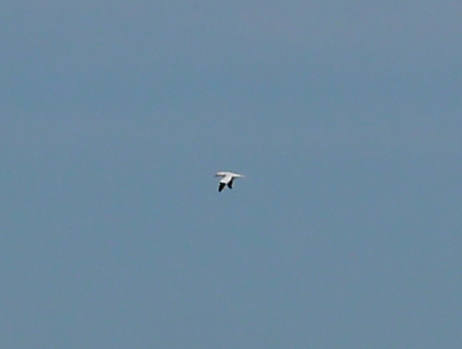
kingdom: Animalia
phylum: Chordata
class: Aves
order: Suliformes
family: Sulidae
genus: Morus
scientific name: Morus bassanus
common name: Northern gannet
